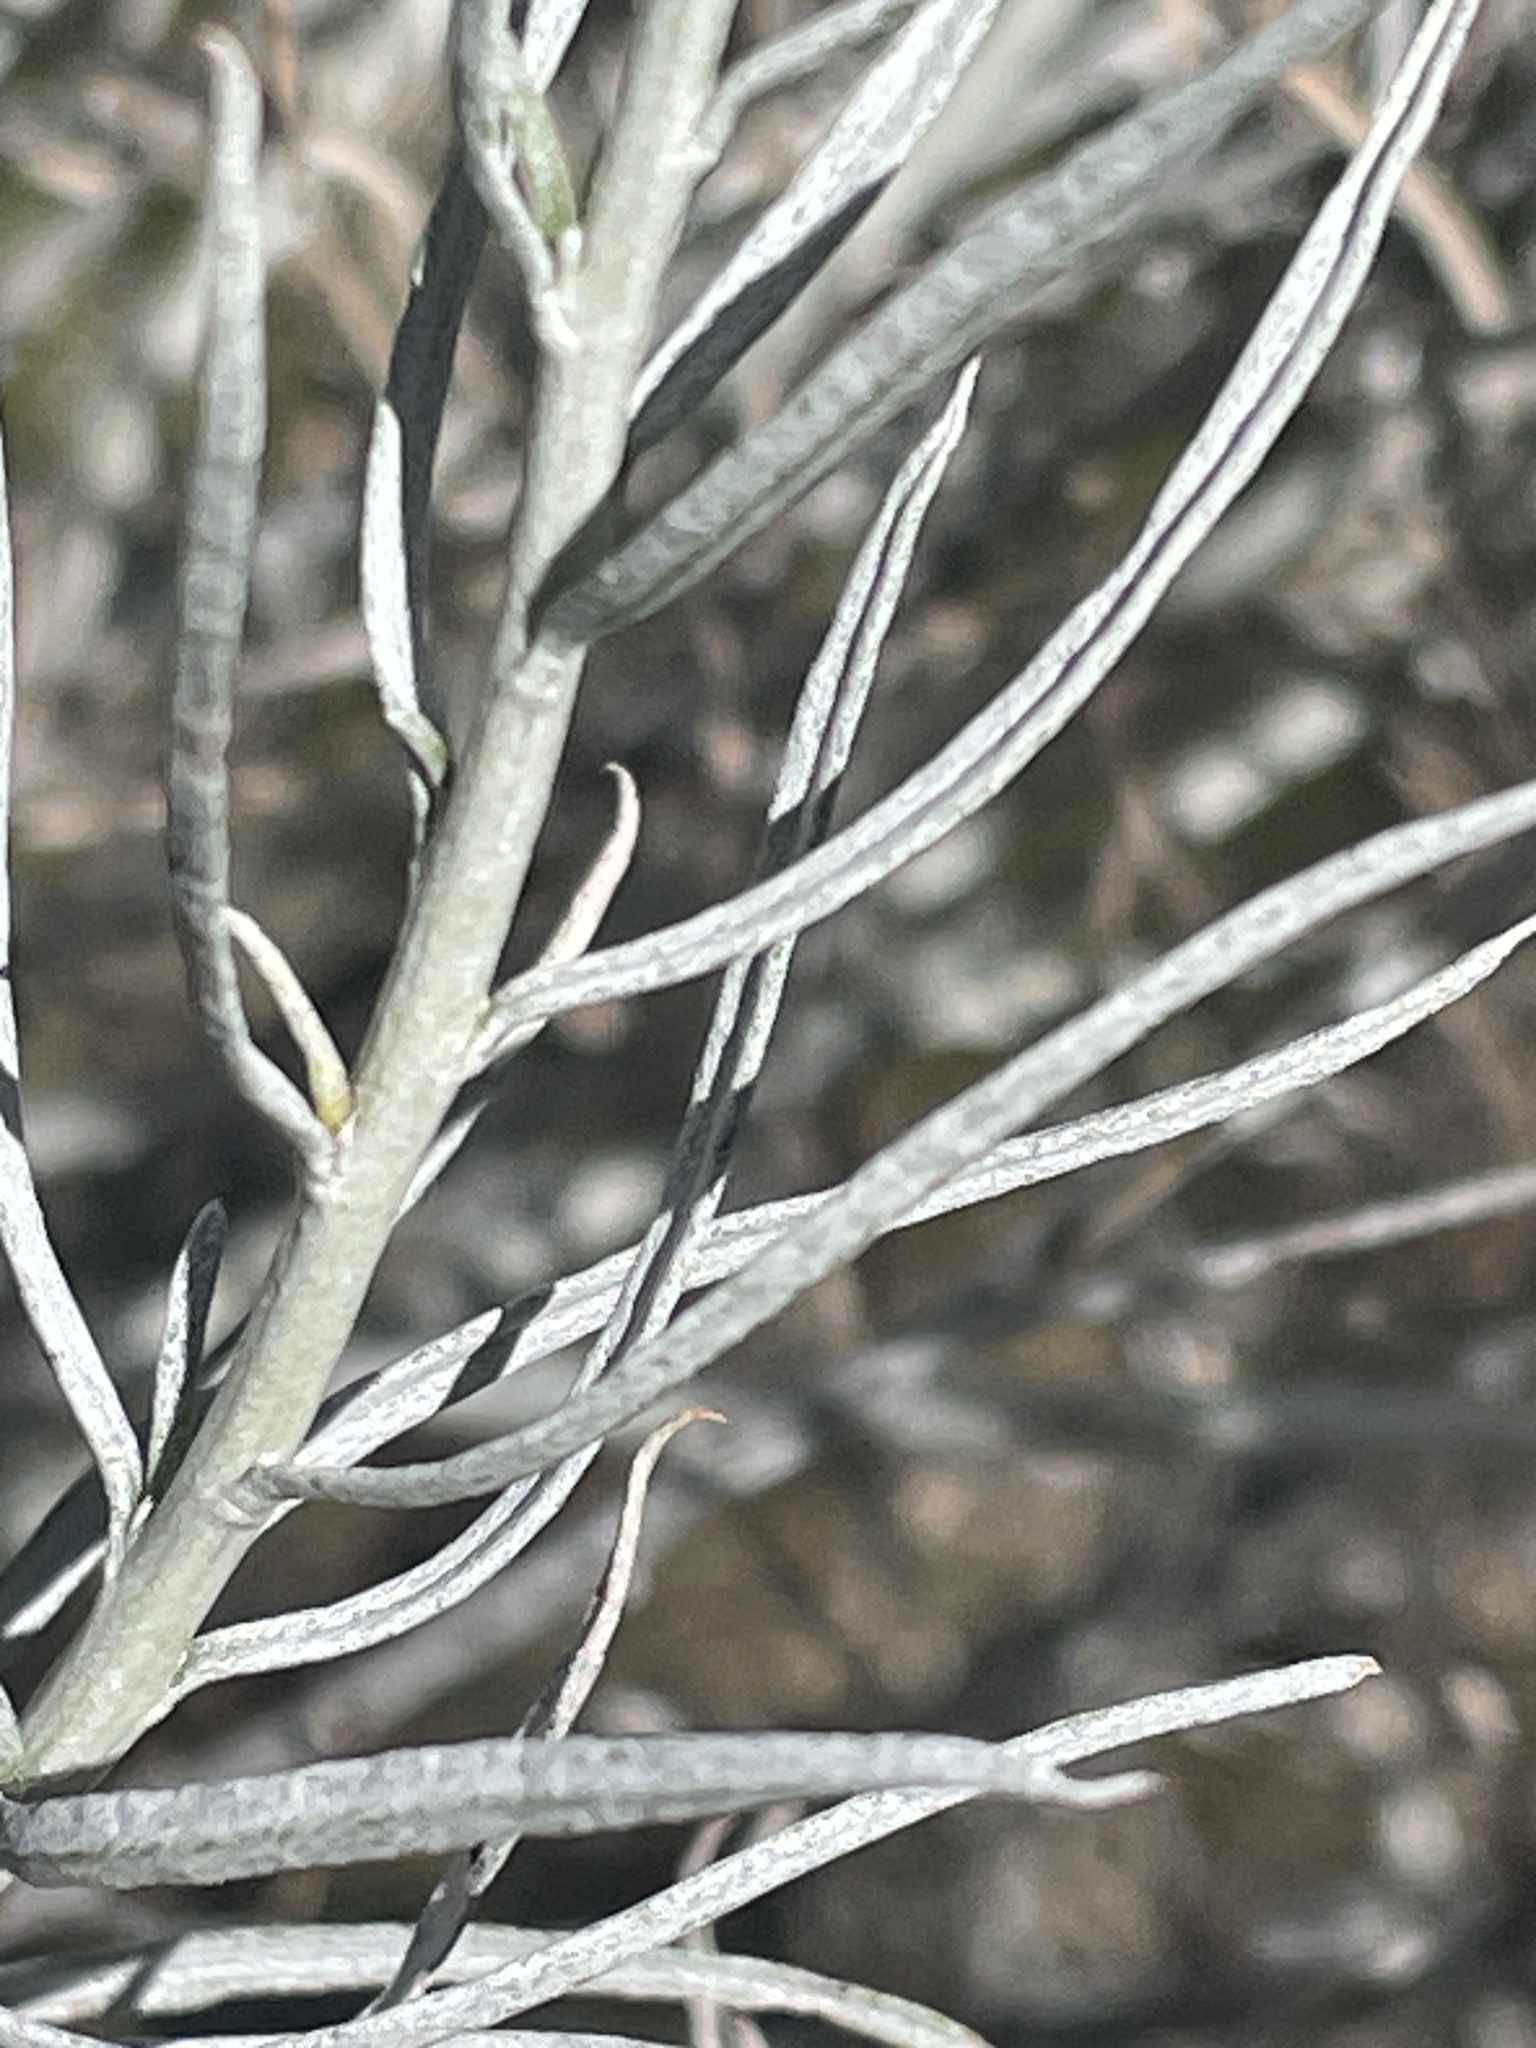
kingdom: Plantae
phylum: Tracheophyta
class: Magnoliopsida
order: Asterales
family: Asteraceae
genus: Ericameria
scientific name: Ericameria nauseosa
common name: Rubber rabbitbrush
